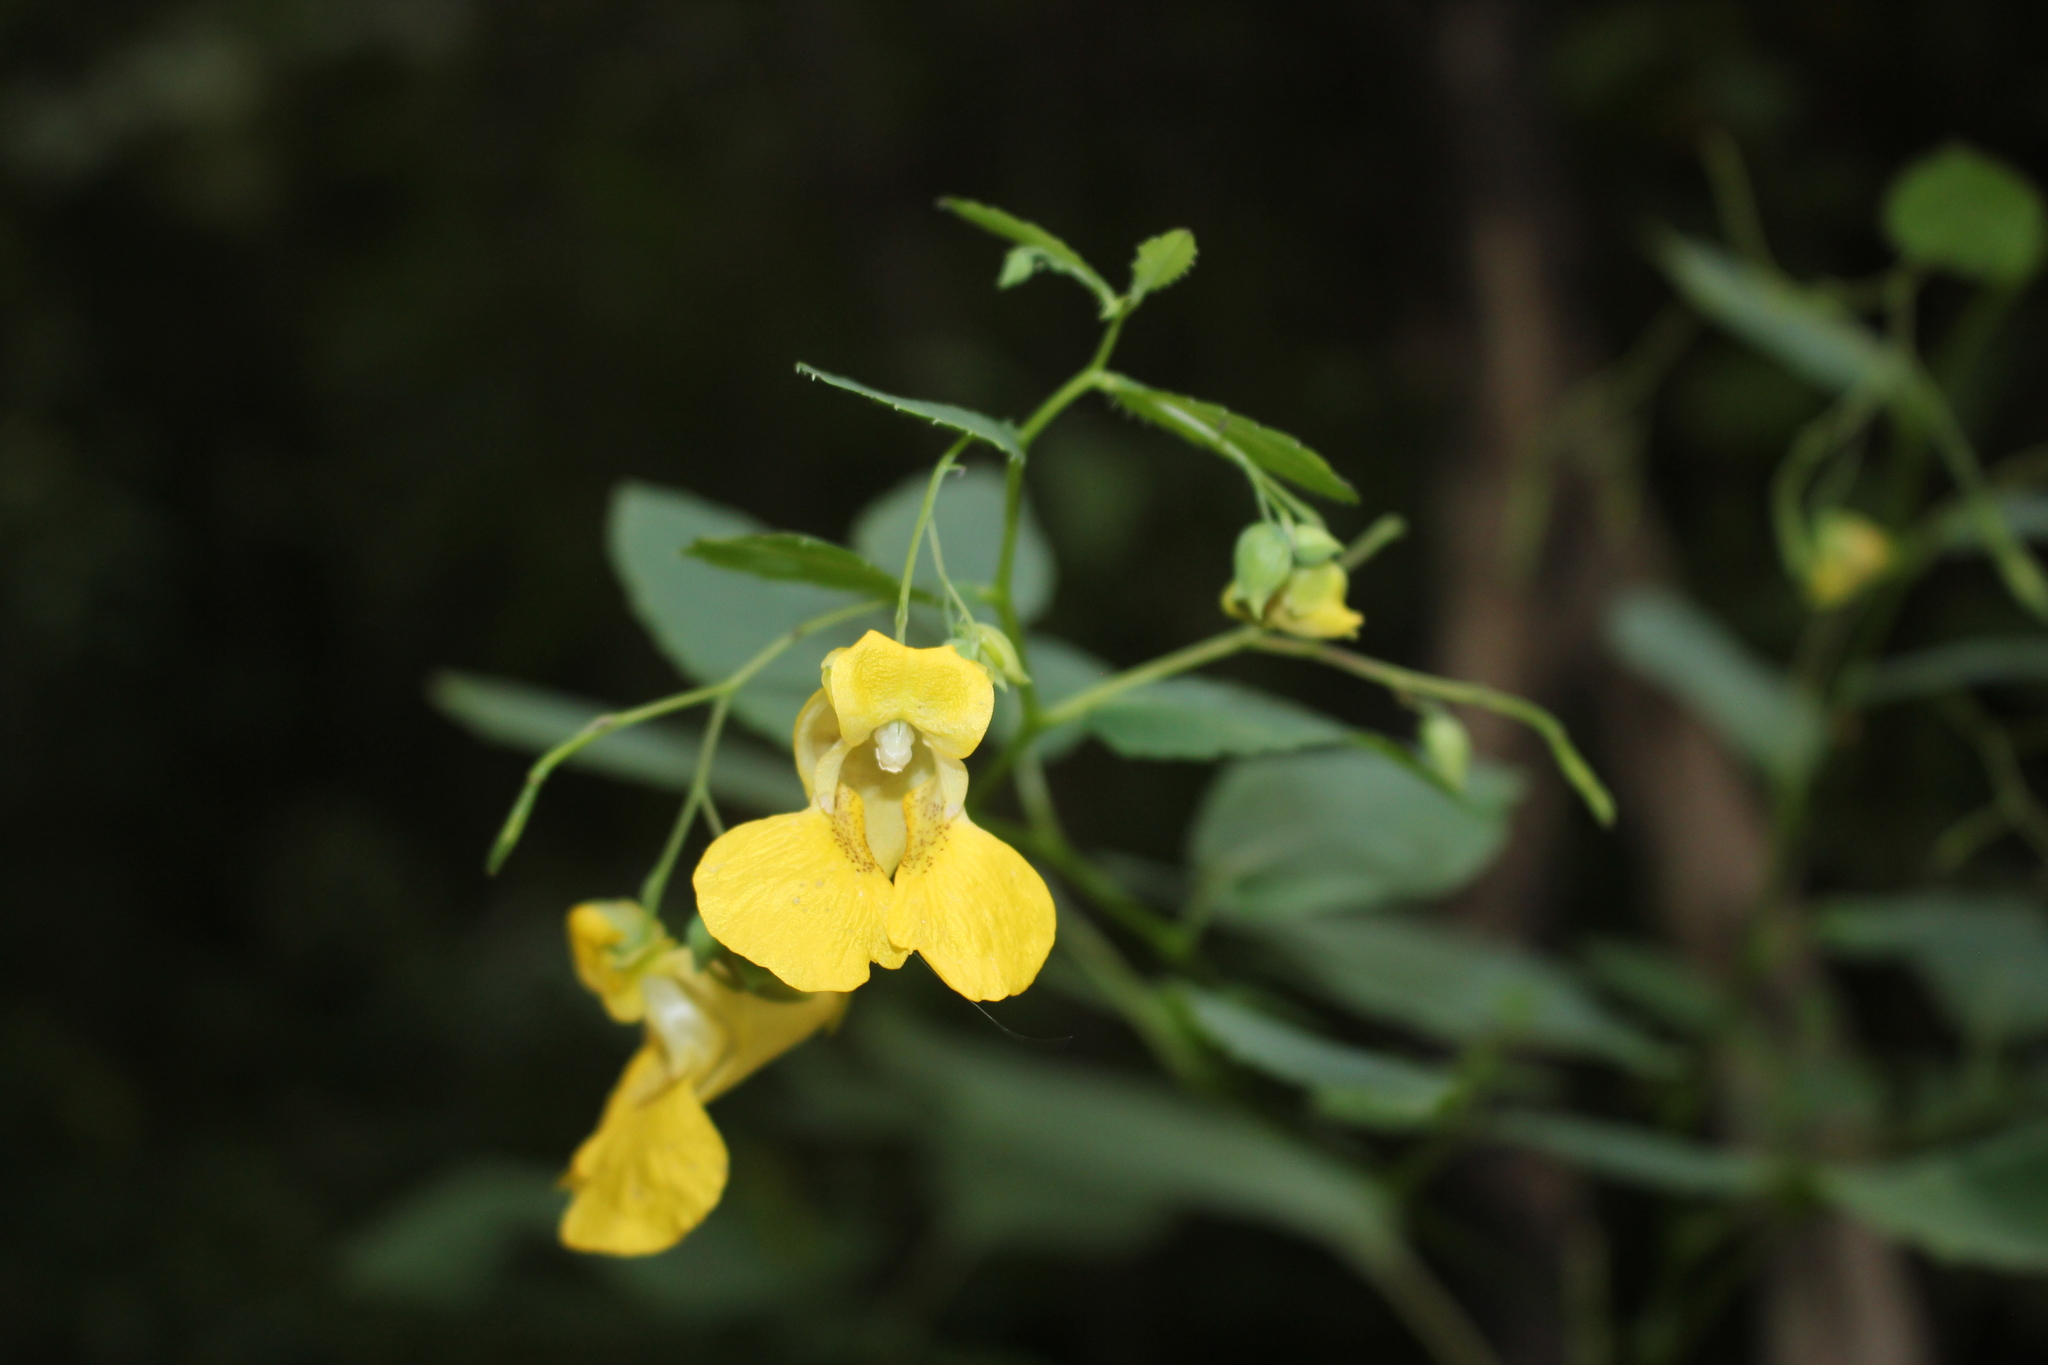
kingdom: Plantae
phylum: Tracheophyta
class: Magnoliopsida
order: Ericales
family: Balsaminaceae
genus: Impatiens
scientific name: Impatiens pallida
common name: Pale snapweed
